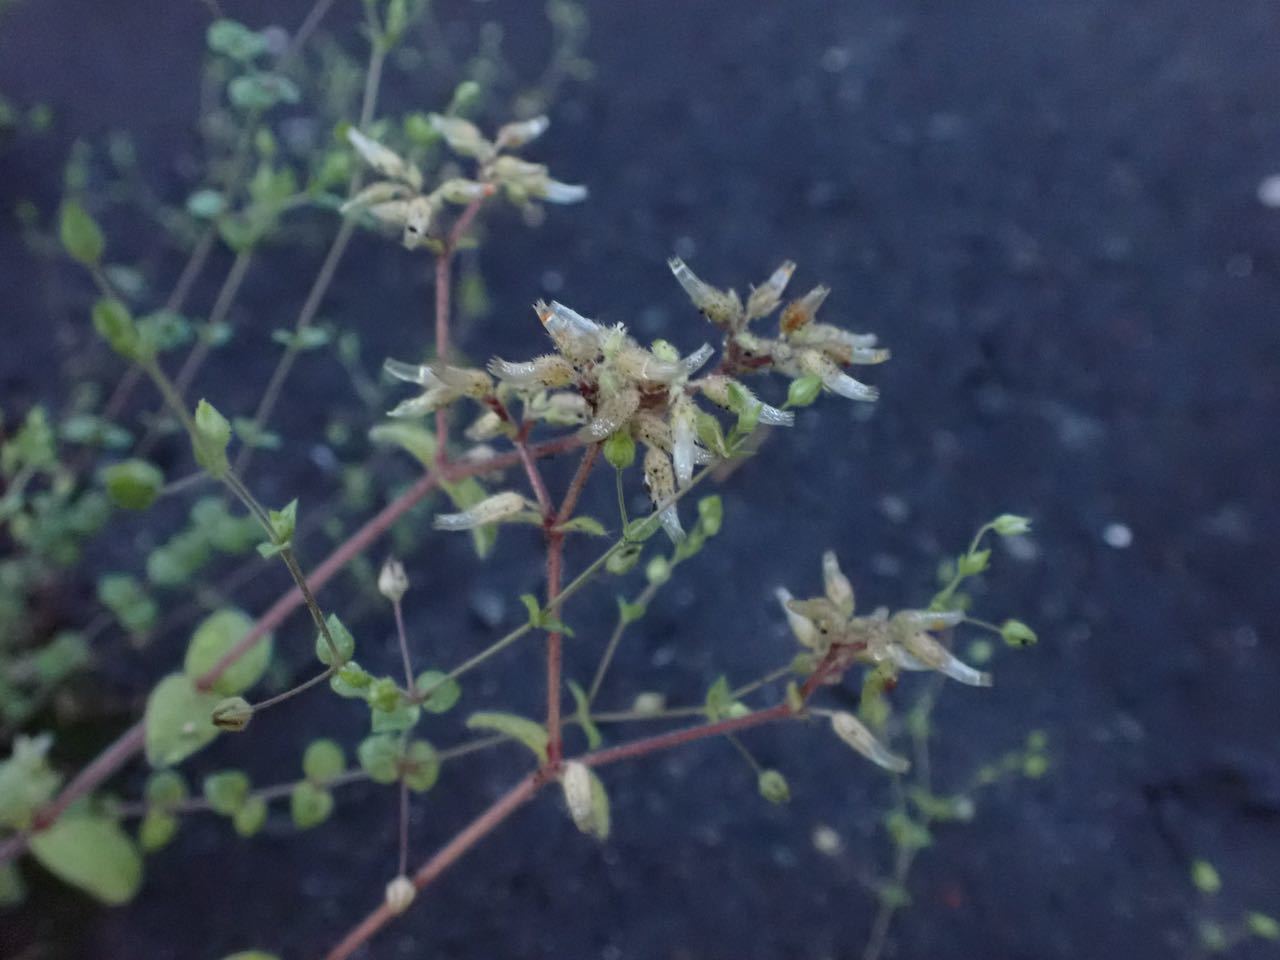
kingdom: Plantae
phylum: Tracheophyta
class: Magnoliopsida
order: Caryophyllales
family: Caryophyllaceae
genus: Cerastium
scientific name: Cerastium glomeratum
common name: Sticky chickweed
